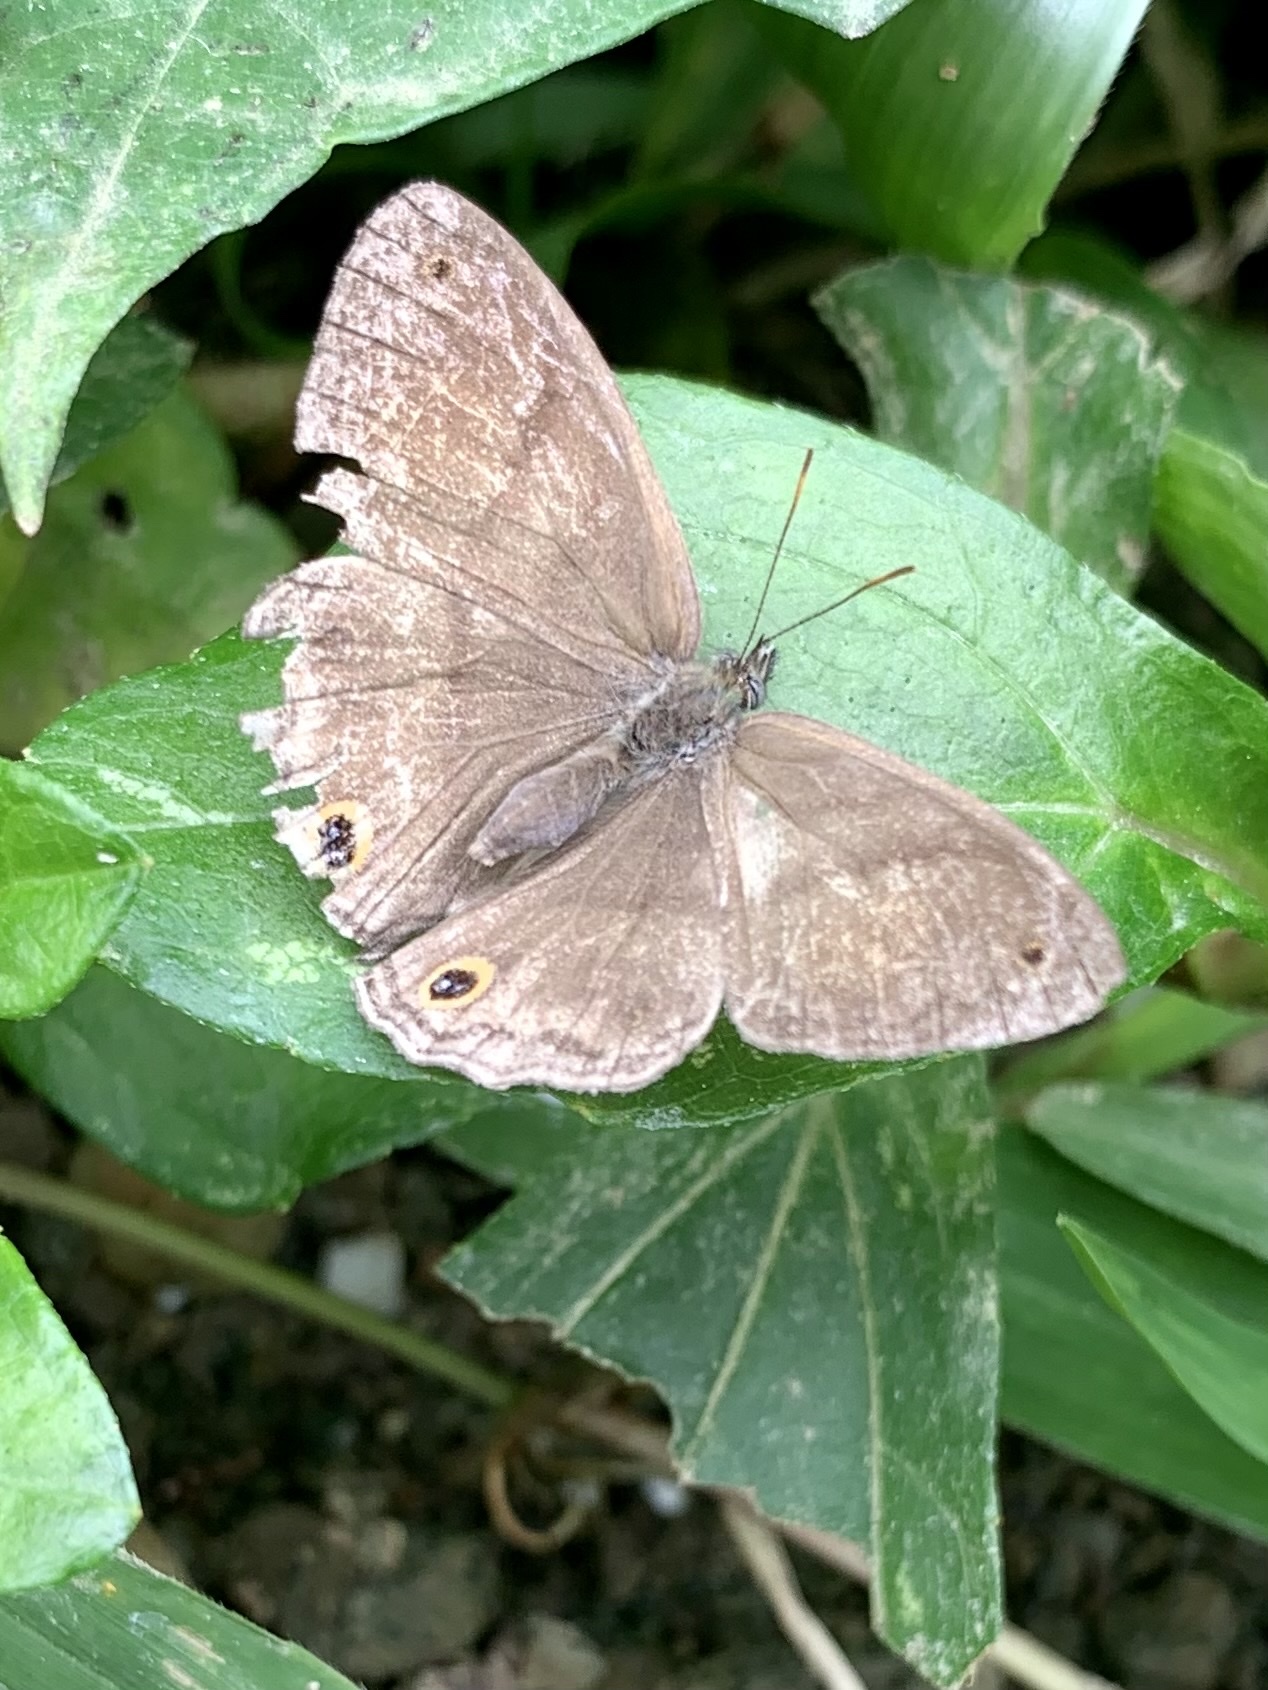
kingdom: Animalia
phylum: Arthropoda
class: Insecta
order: Lepidoptera
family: Nymphalidae
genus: Paryphthimoides
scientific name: Paryphthimoides
